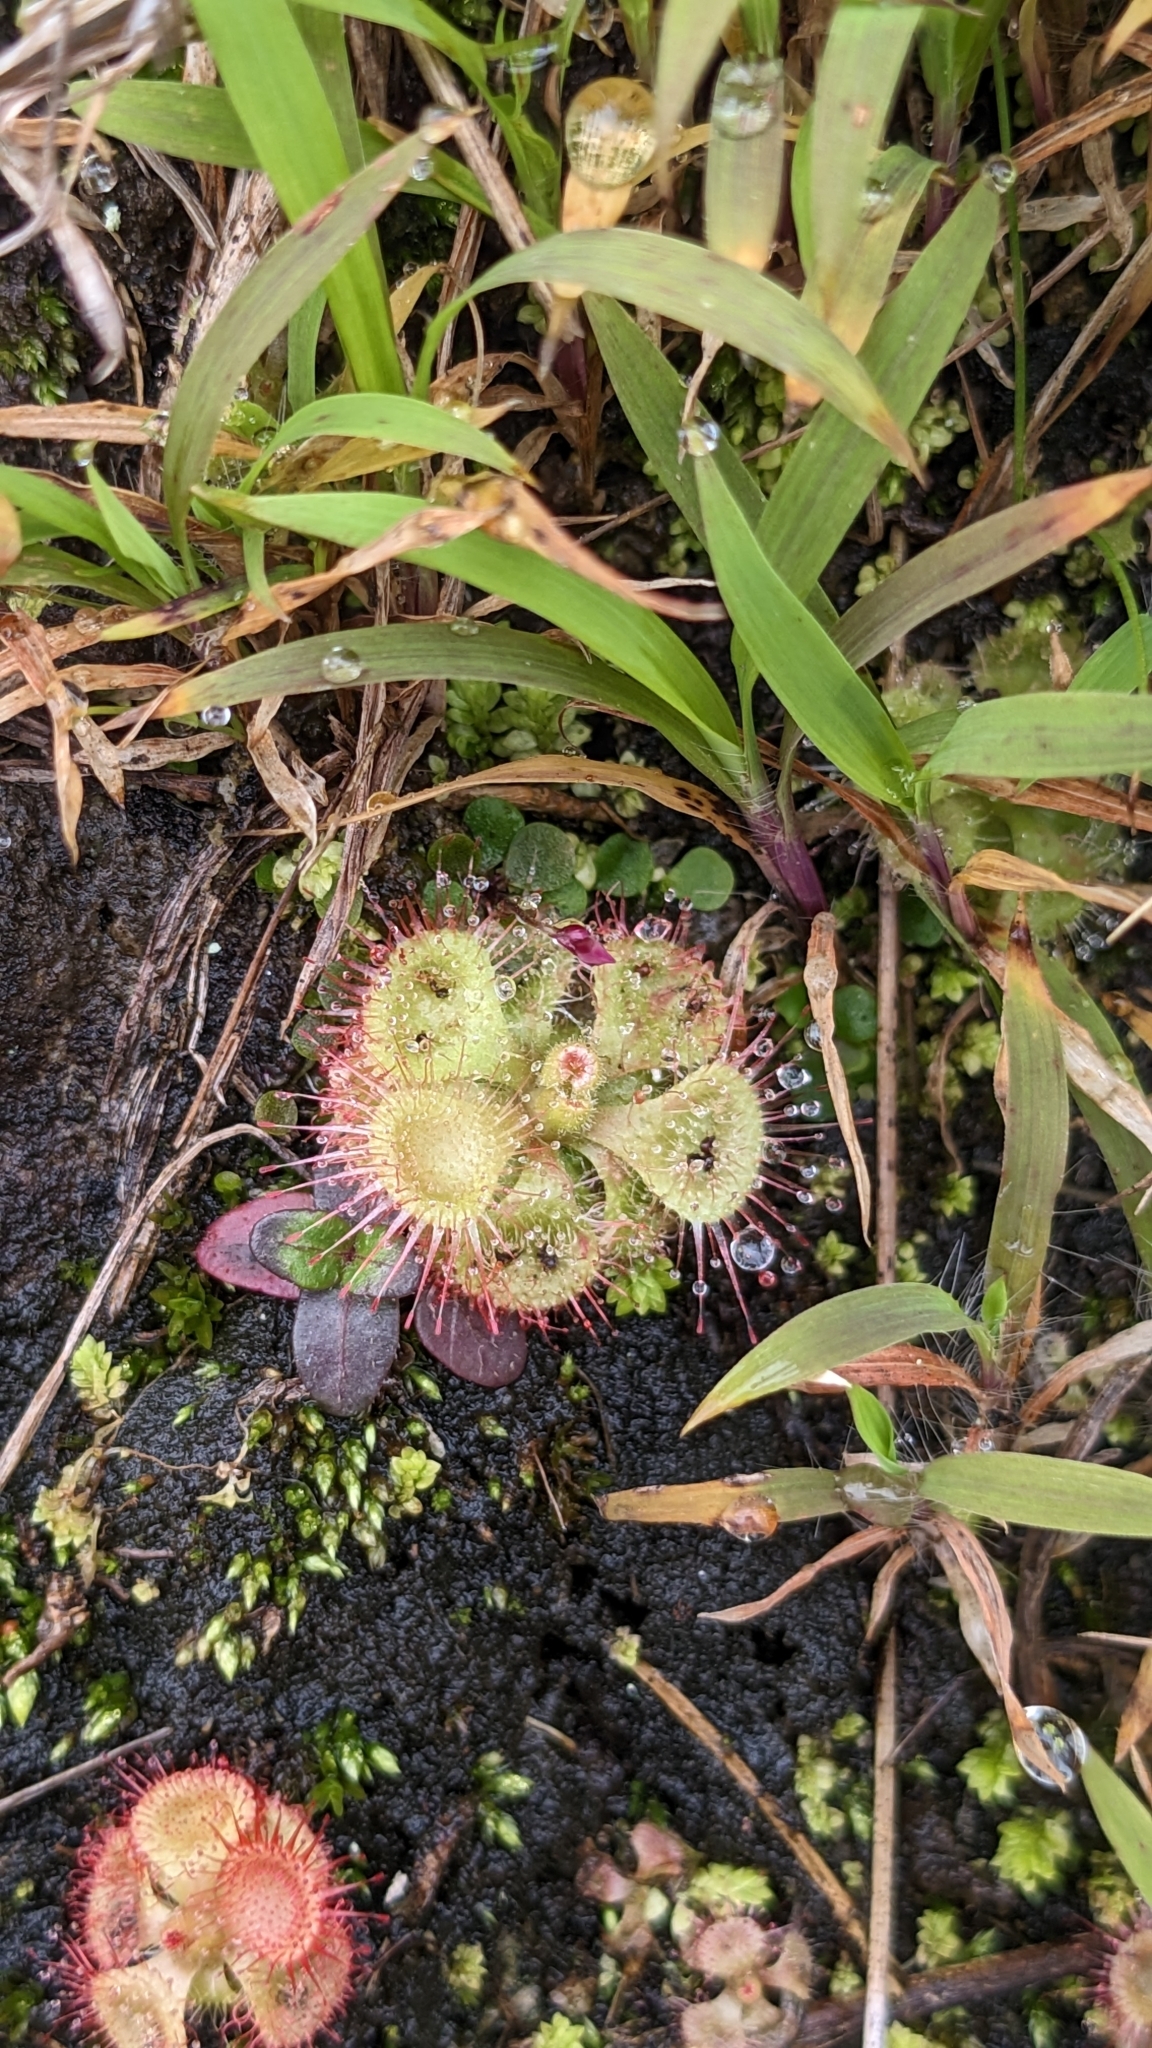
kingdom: Plantae
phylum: Tracheophyta
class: Magnoliopsida
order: Caryophyllales
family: Droseraceae
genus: Drosera
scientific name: Drosera spatulata
